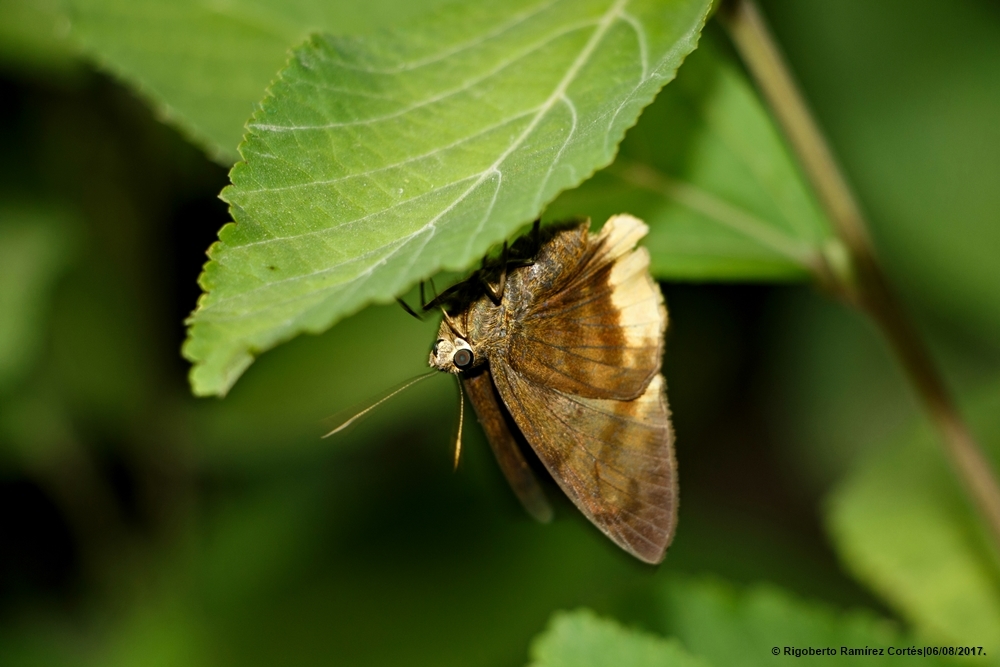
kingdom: Animalia
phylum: Arthropoda
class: Insecta
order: Lepidoptera
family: Hesperiidae
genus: Astraptes
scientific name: Astraptes anaphus
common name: Yellow-tipped flasher
